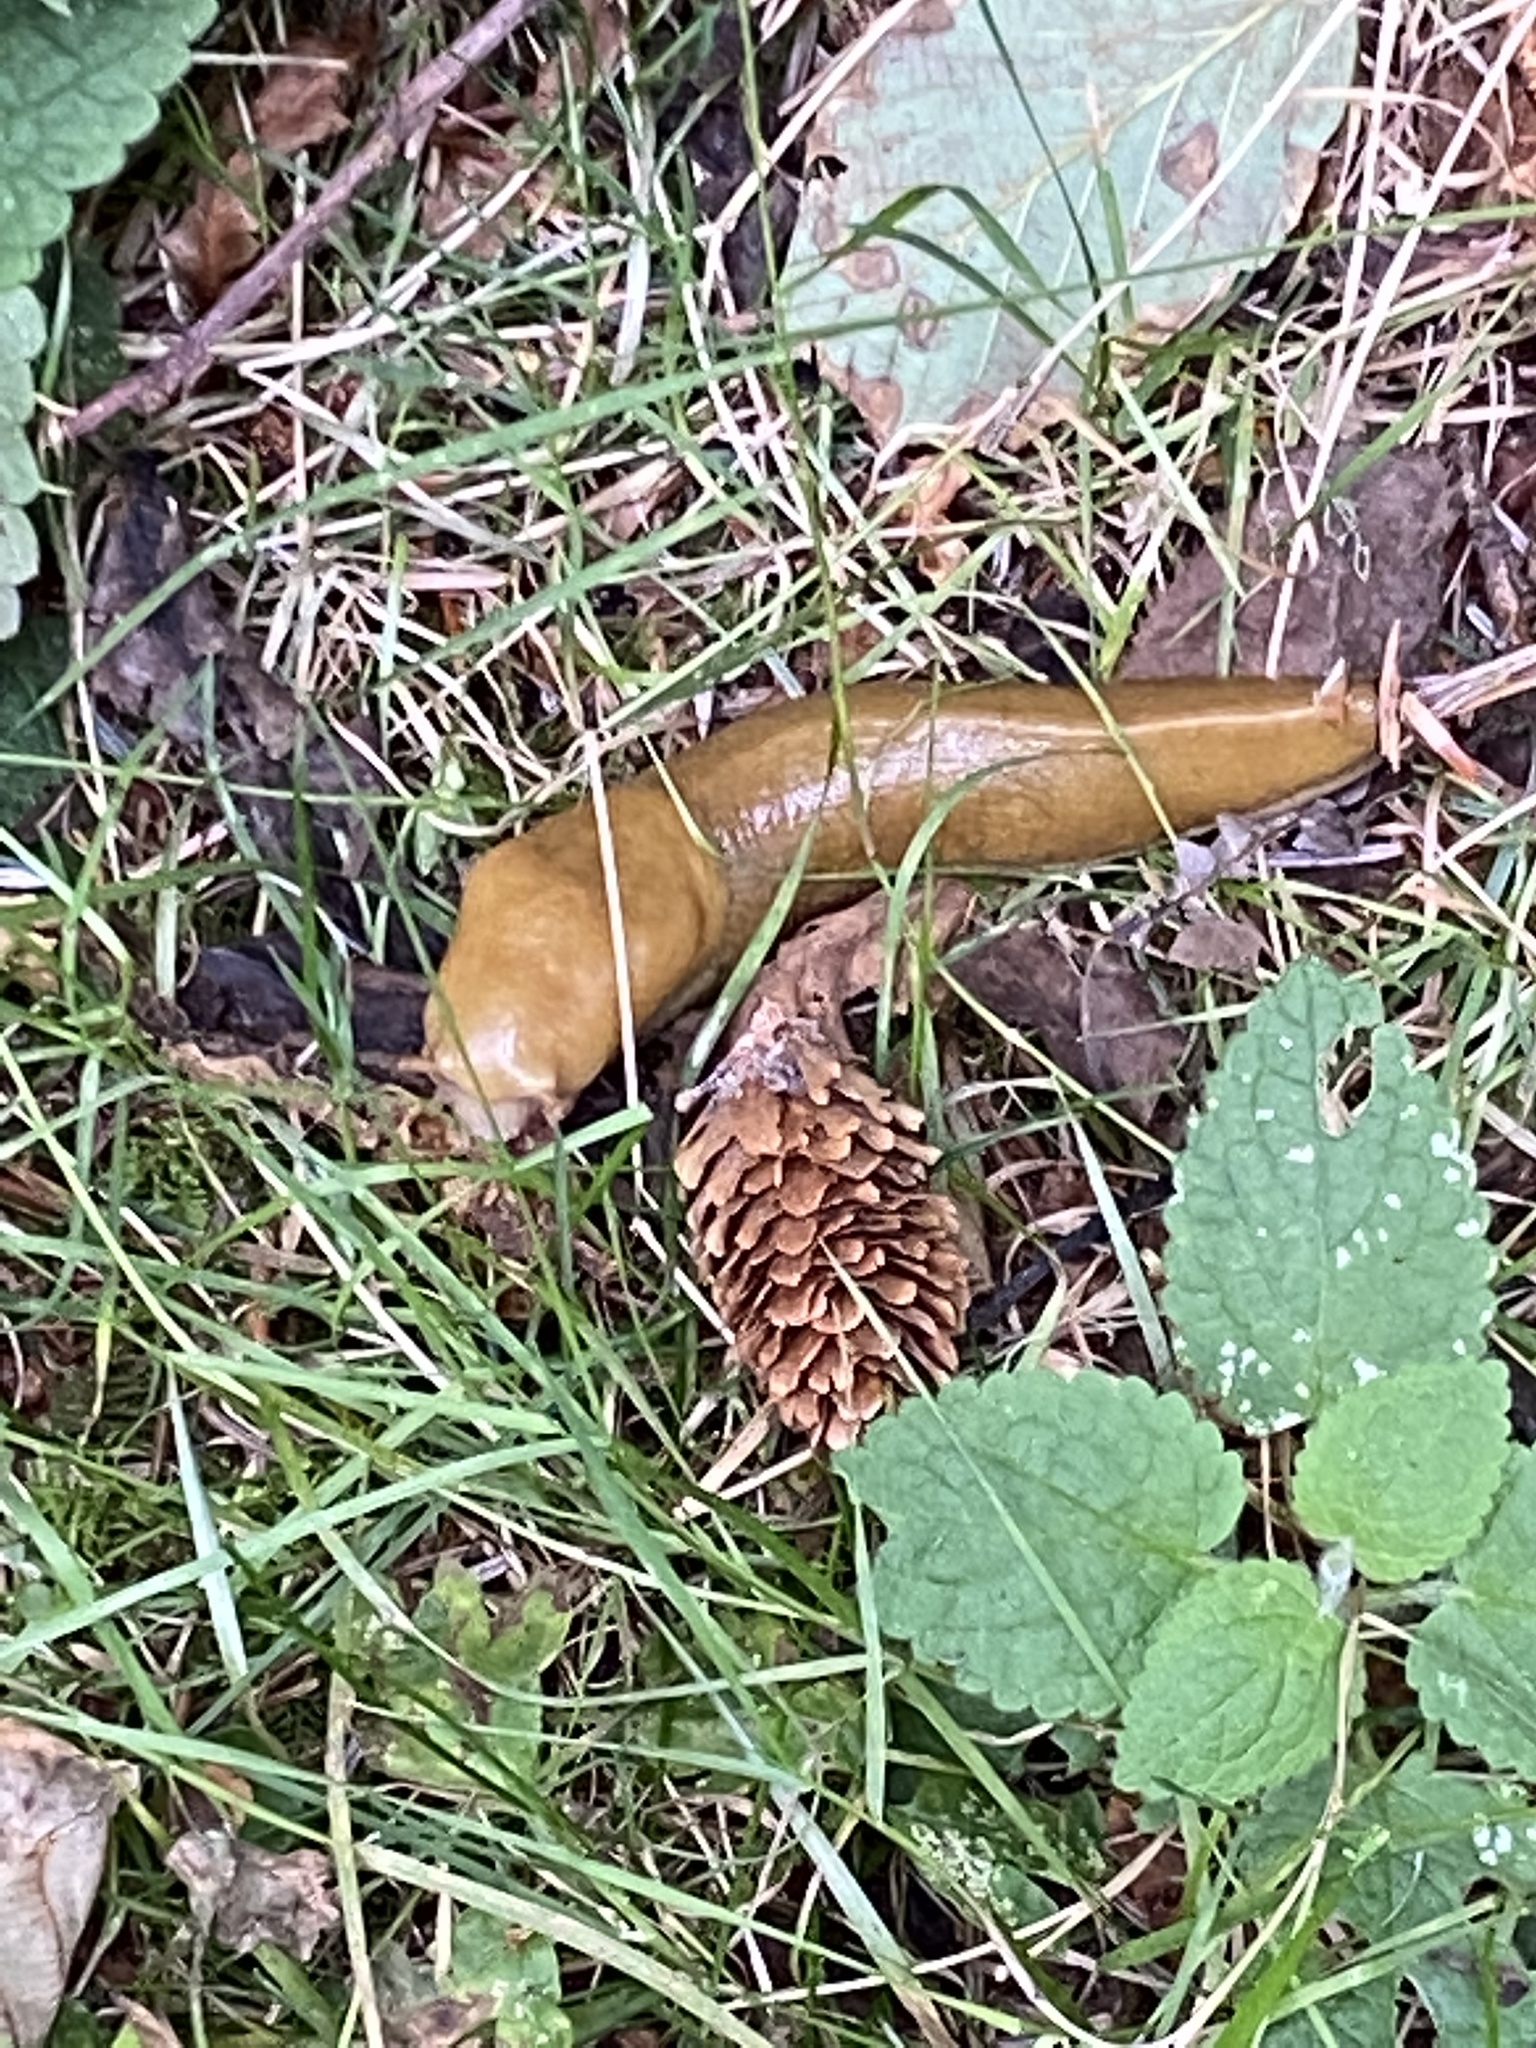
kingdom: Animalia
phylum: Mollusca
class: Gastropoda
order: Stylommatophora
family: Ariolimacidae
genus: Ariolimax
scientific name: Ariolimax columbianus
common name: Pacific banana slug
